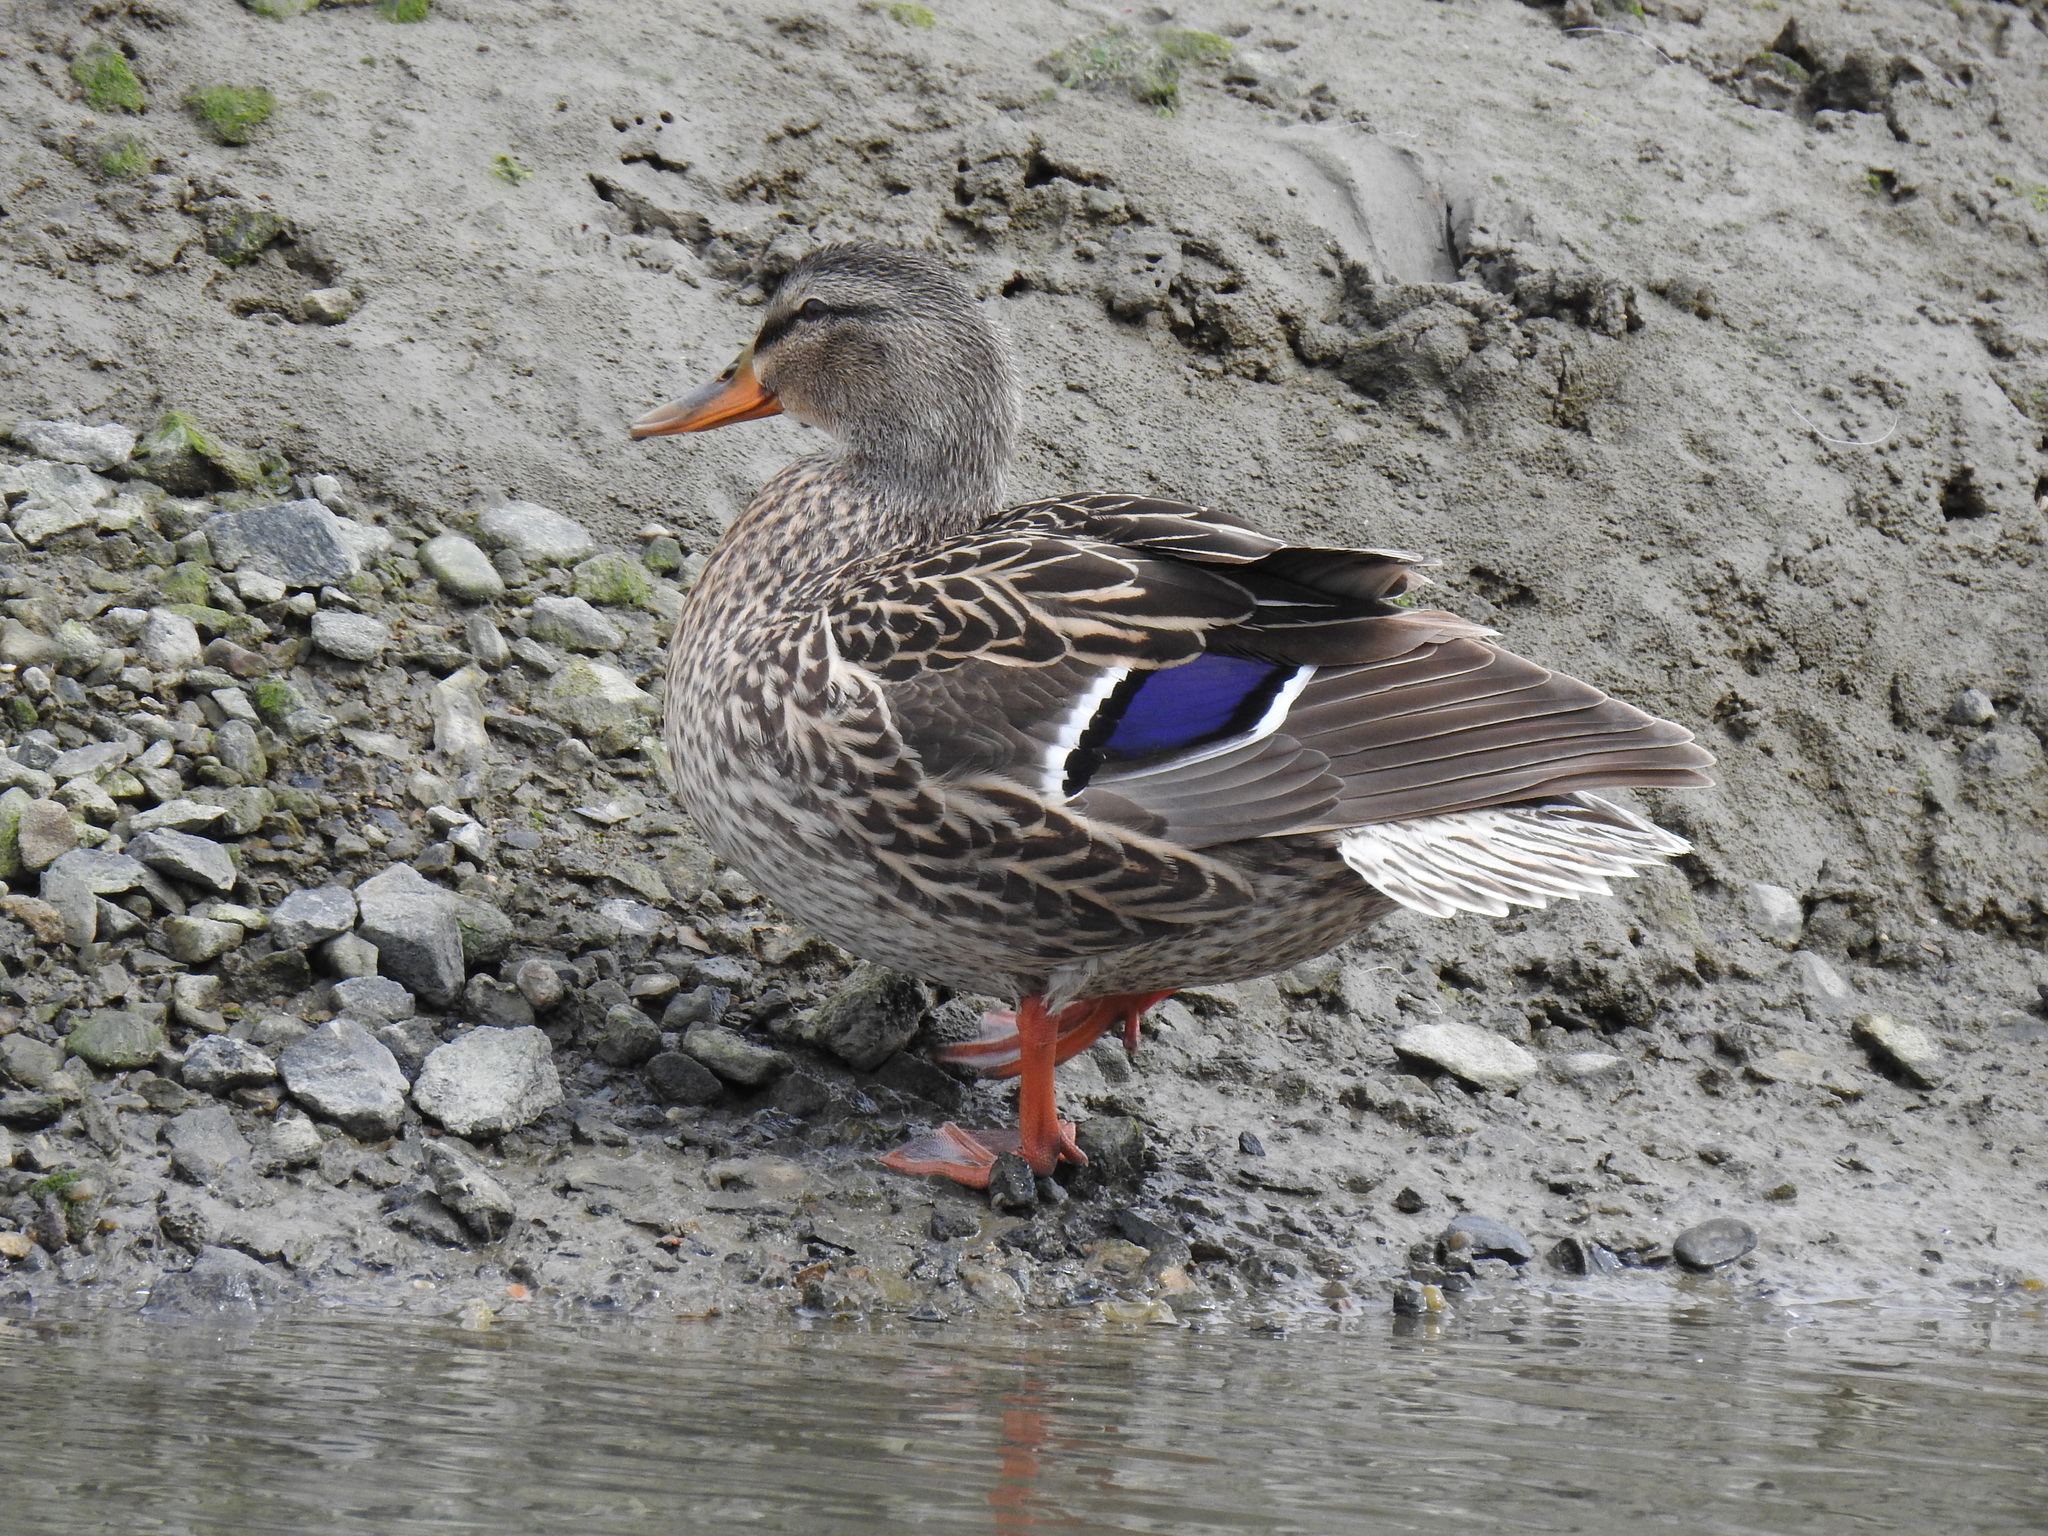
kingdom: Animalia
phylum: Chordata
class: Aves
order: Anseriformes
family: Anatidae
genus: Anas
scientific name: Anas platyrhynchos
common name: Mallard
